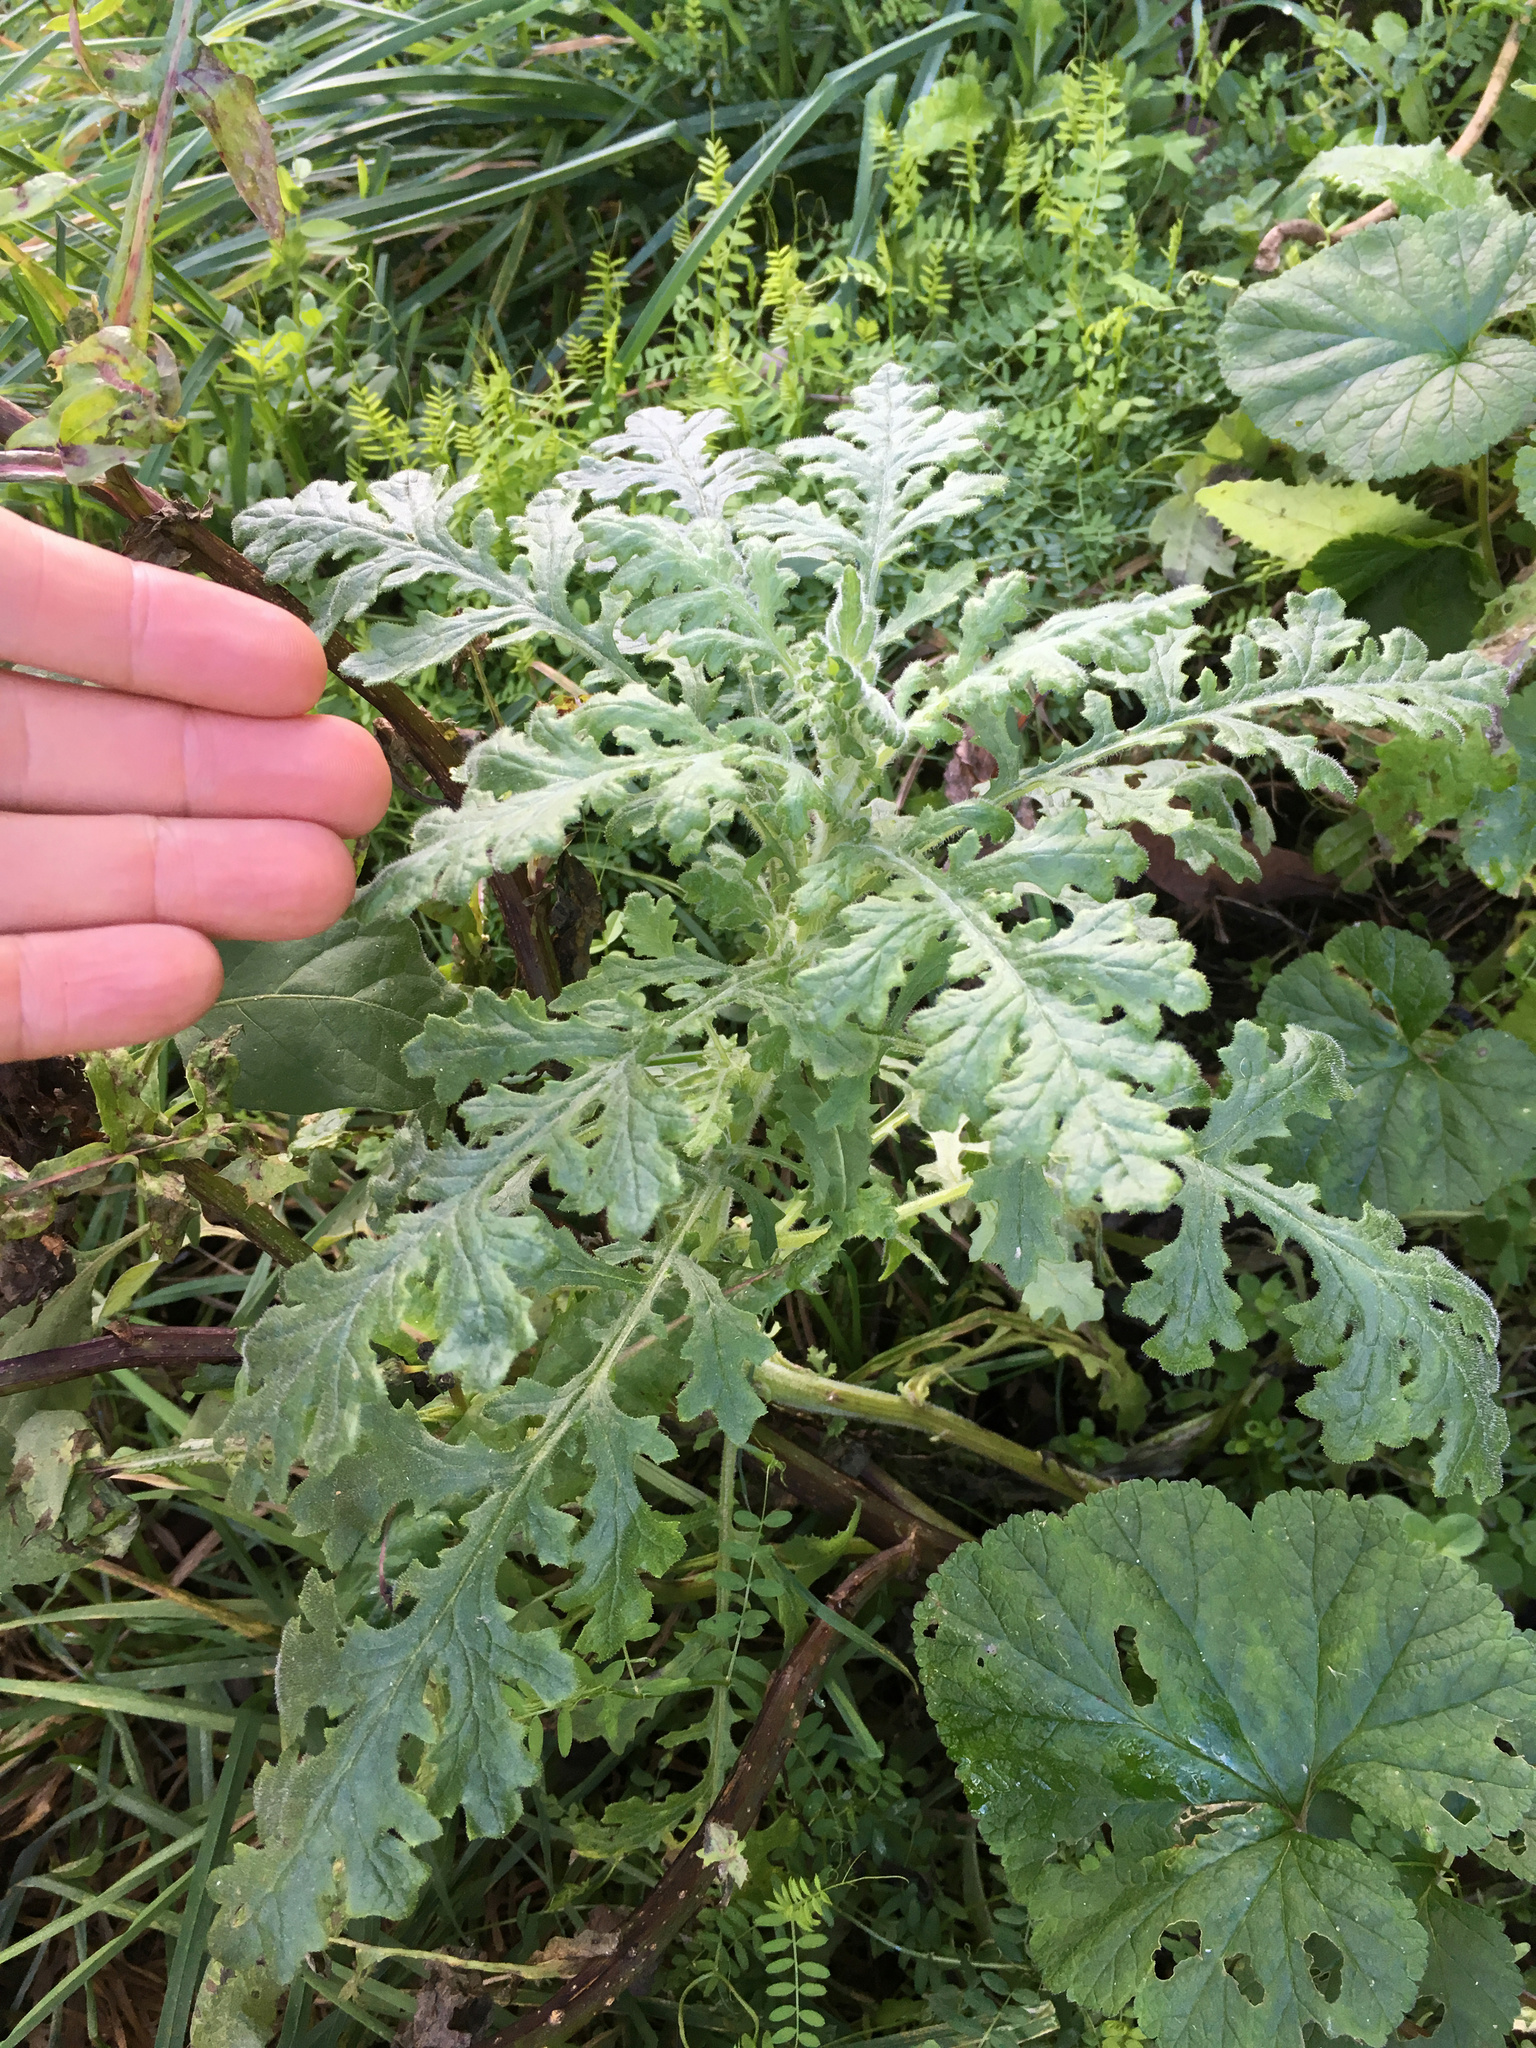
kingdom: Plantae
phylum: Tracheophyta
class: Magnoliopsida
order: Asterales
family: Asteraceae
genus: Senecio
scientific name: Senecio sylvaticus
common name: Woodland ragwort
